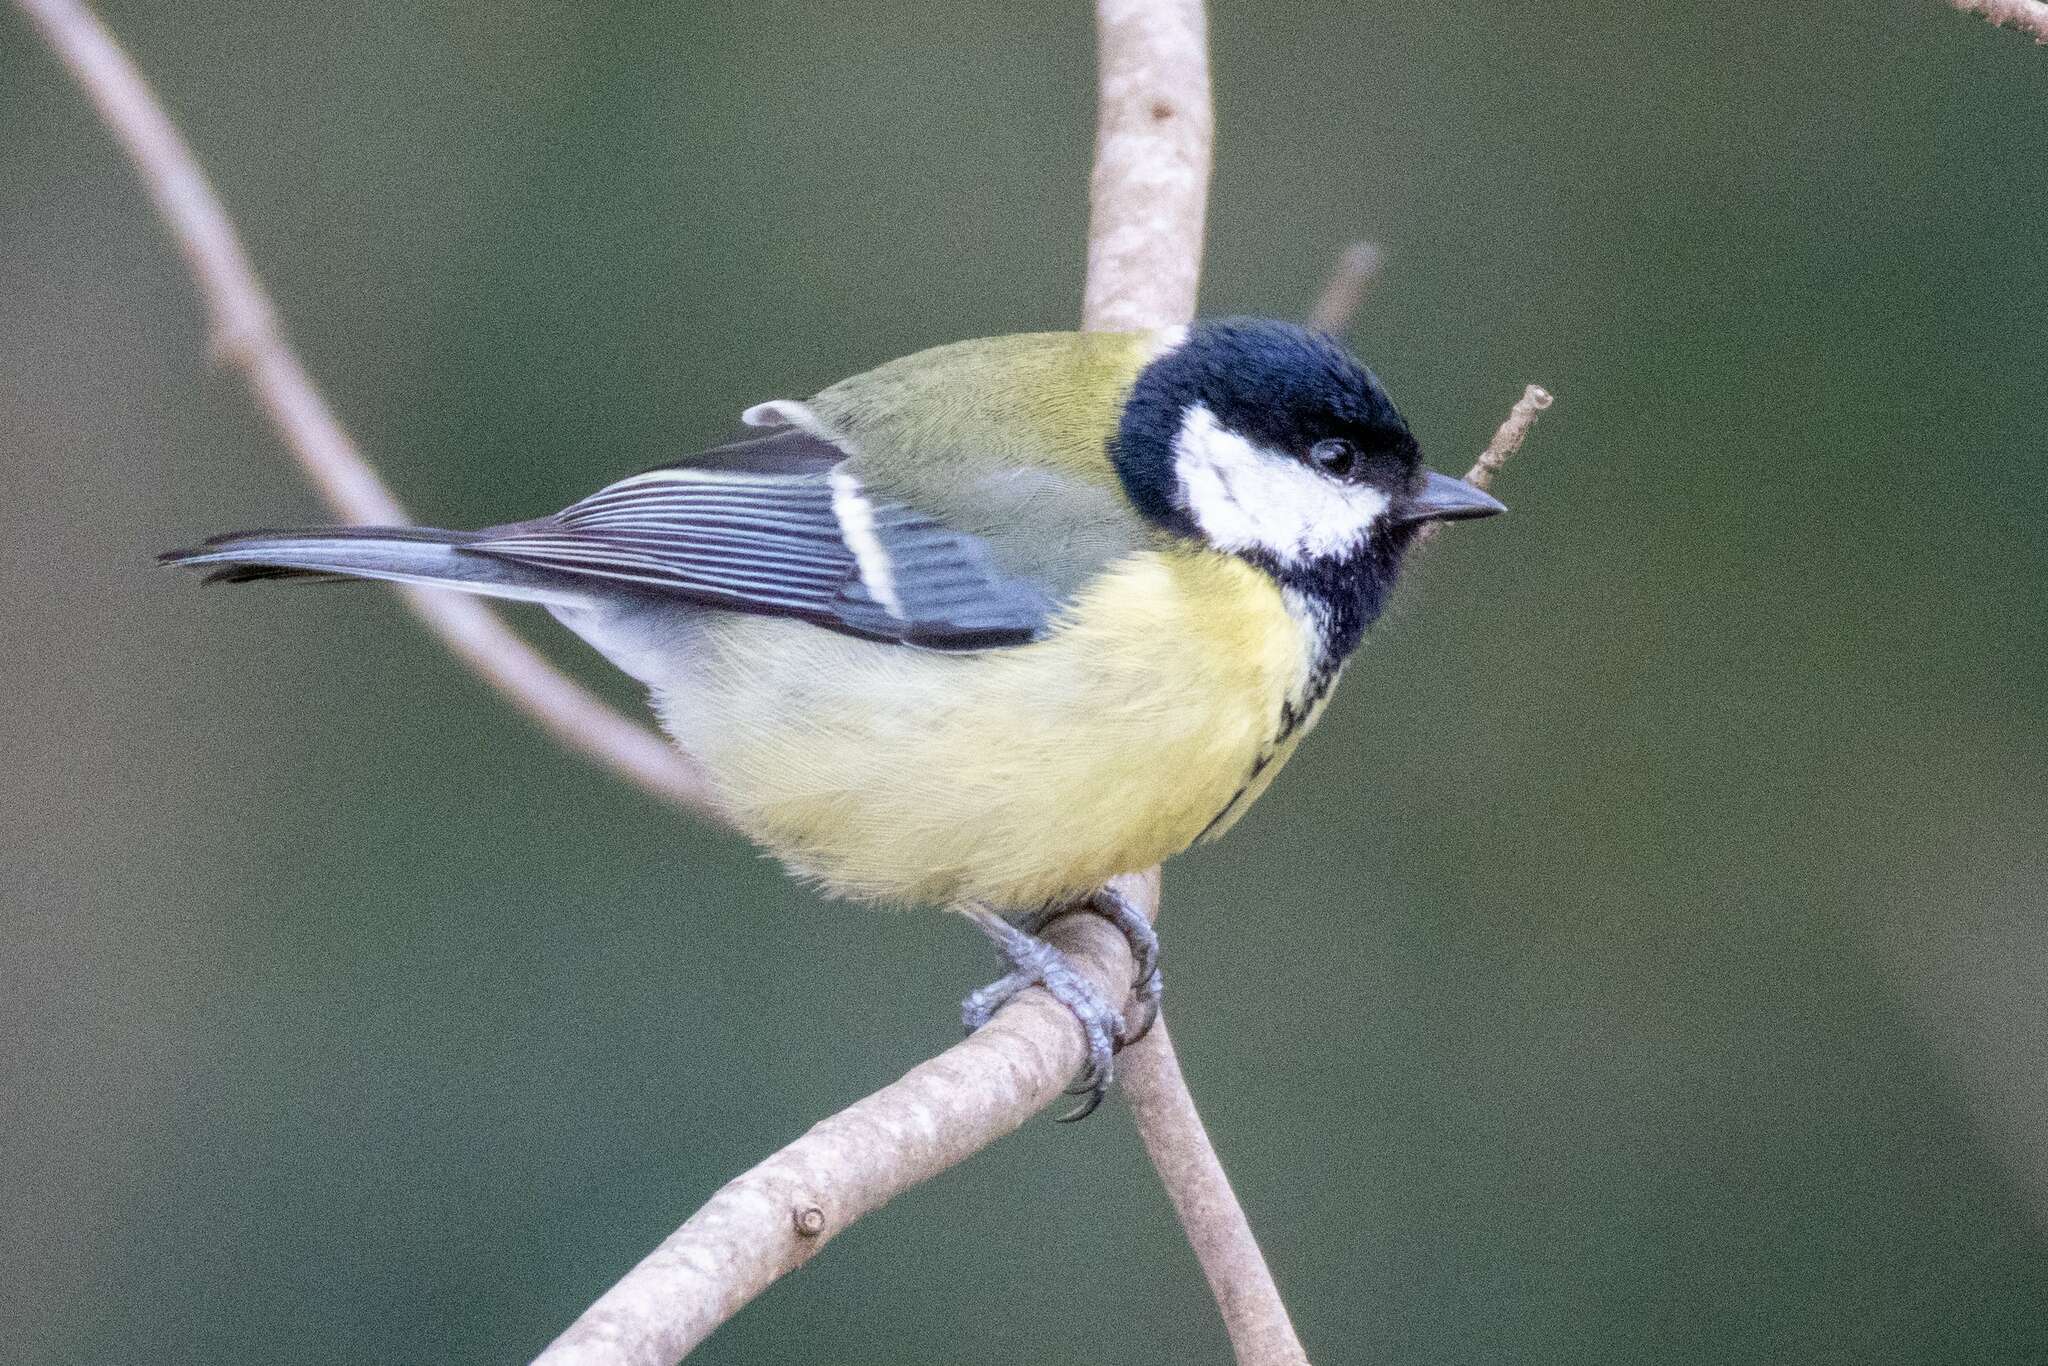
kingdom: Animalia
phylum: Chordata
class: Aves
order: Passeriformes
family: Paridae
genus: Parus
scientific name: Parus major
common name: Great tit
